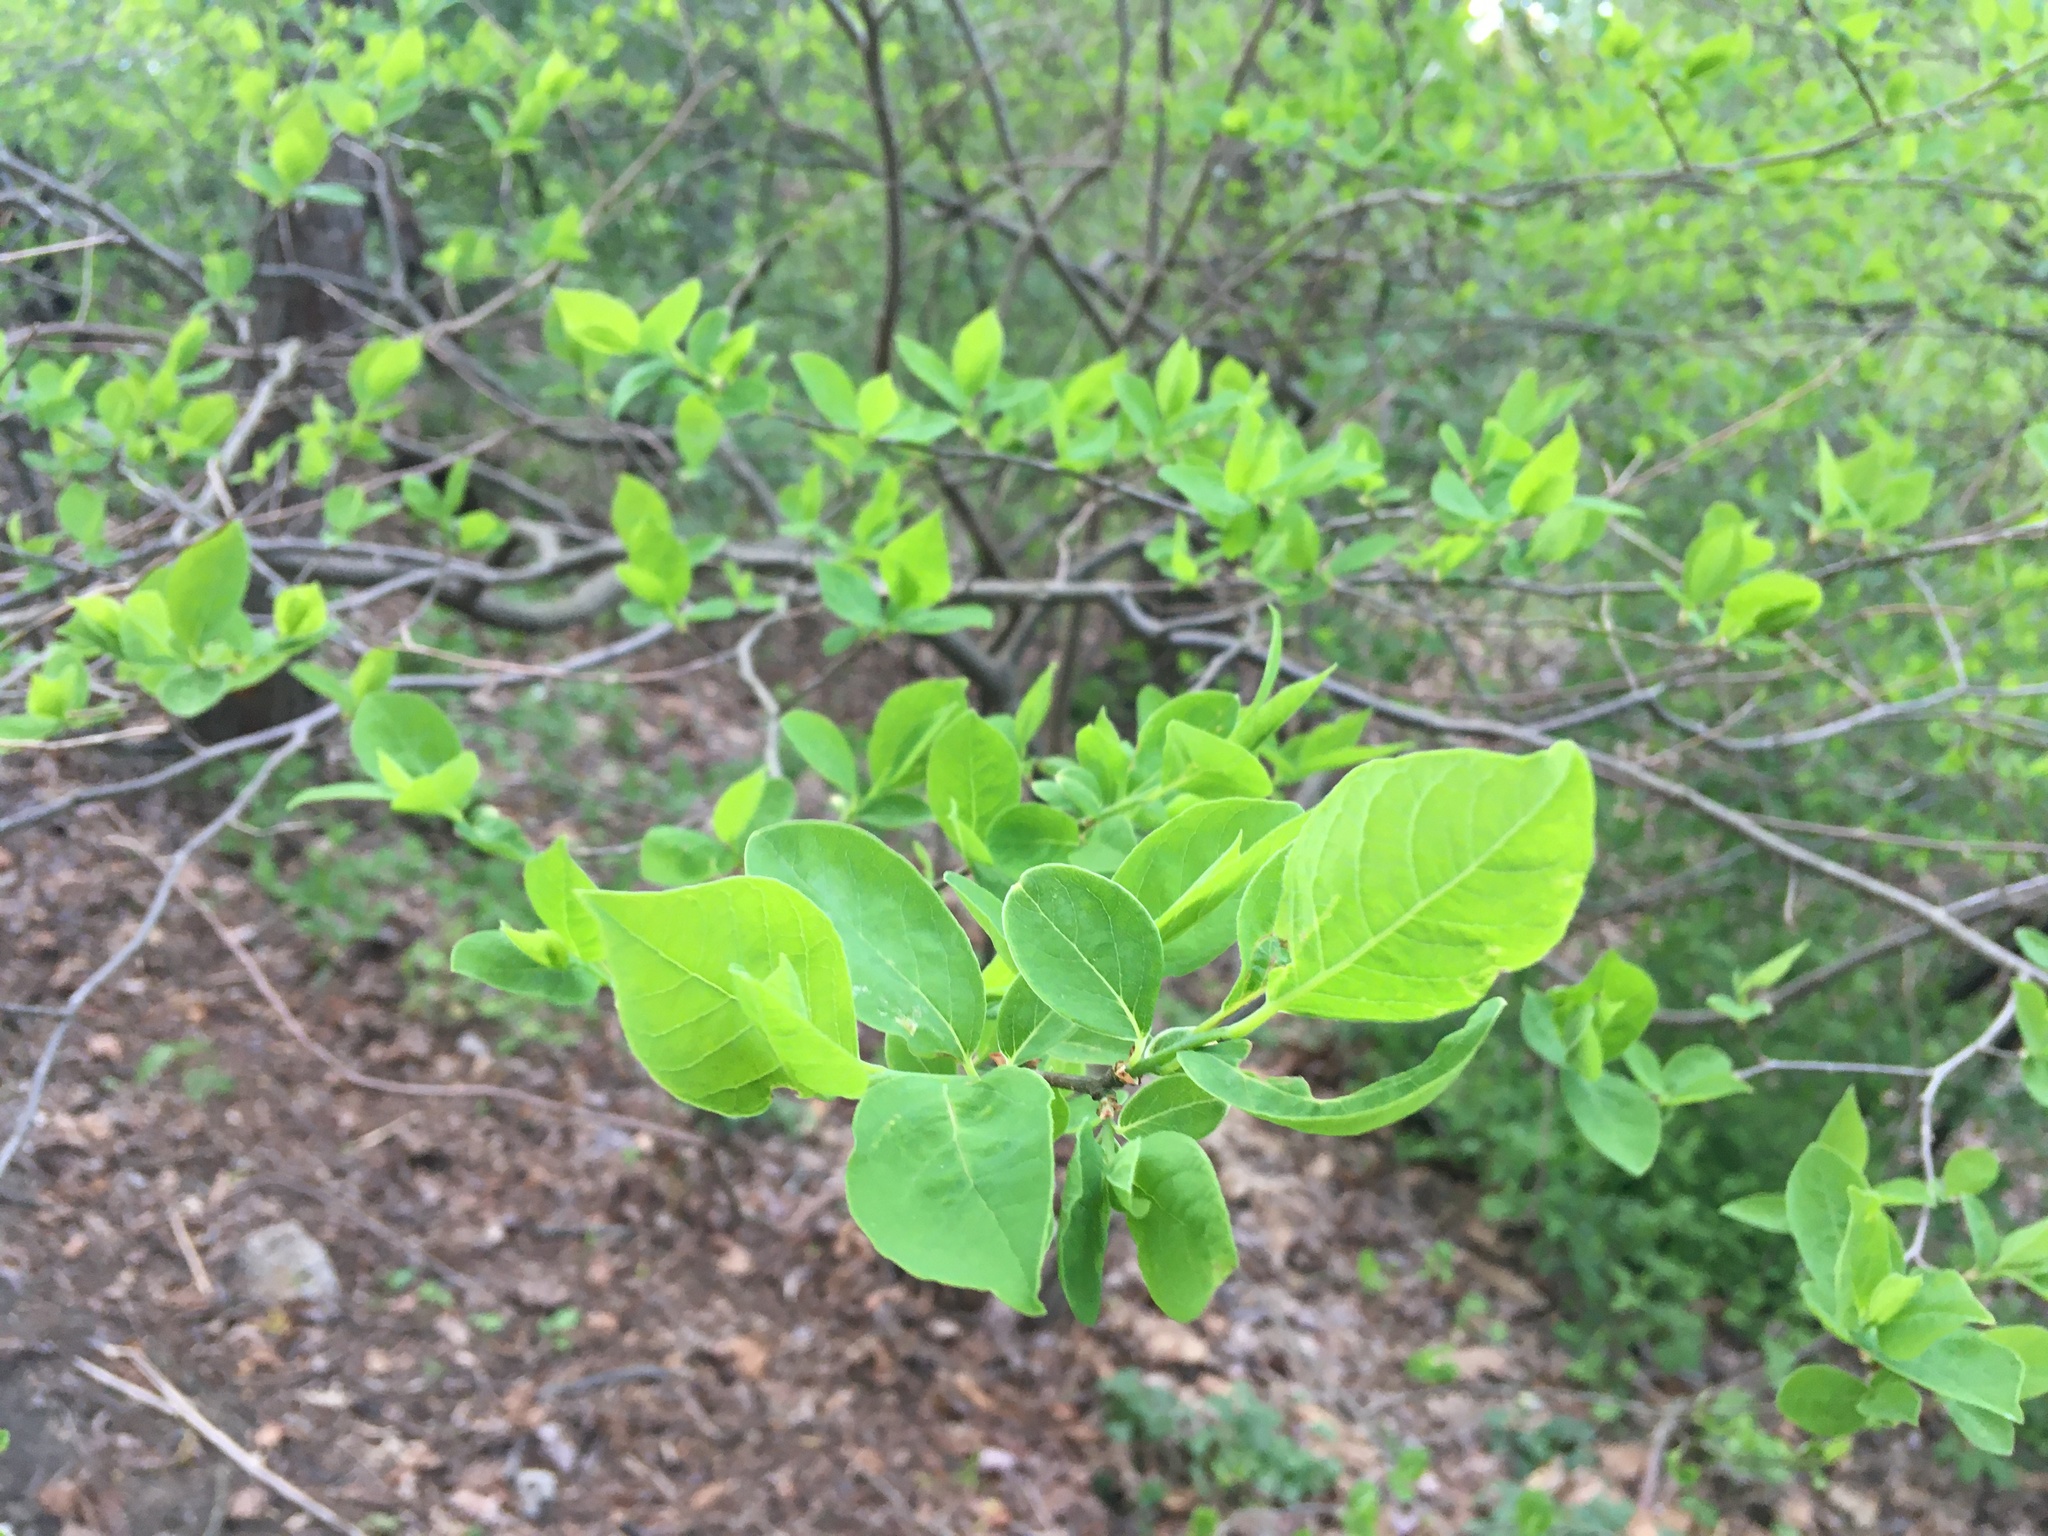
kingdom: Plantae
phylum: Tracheophyta
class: Magnoliopsida
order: Laurales
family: Lauraceae
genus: Lindera
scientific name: Lindera benzoin
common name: Spicebush
